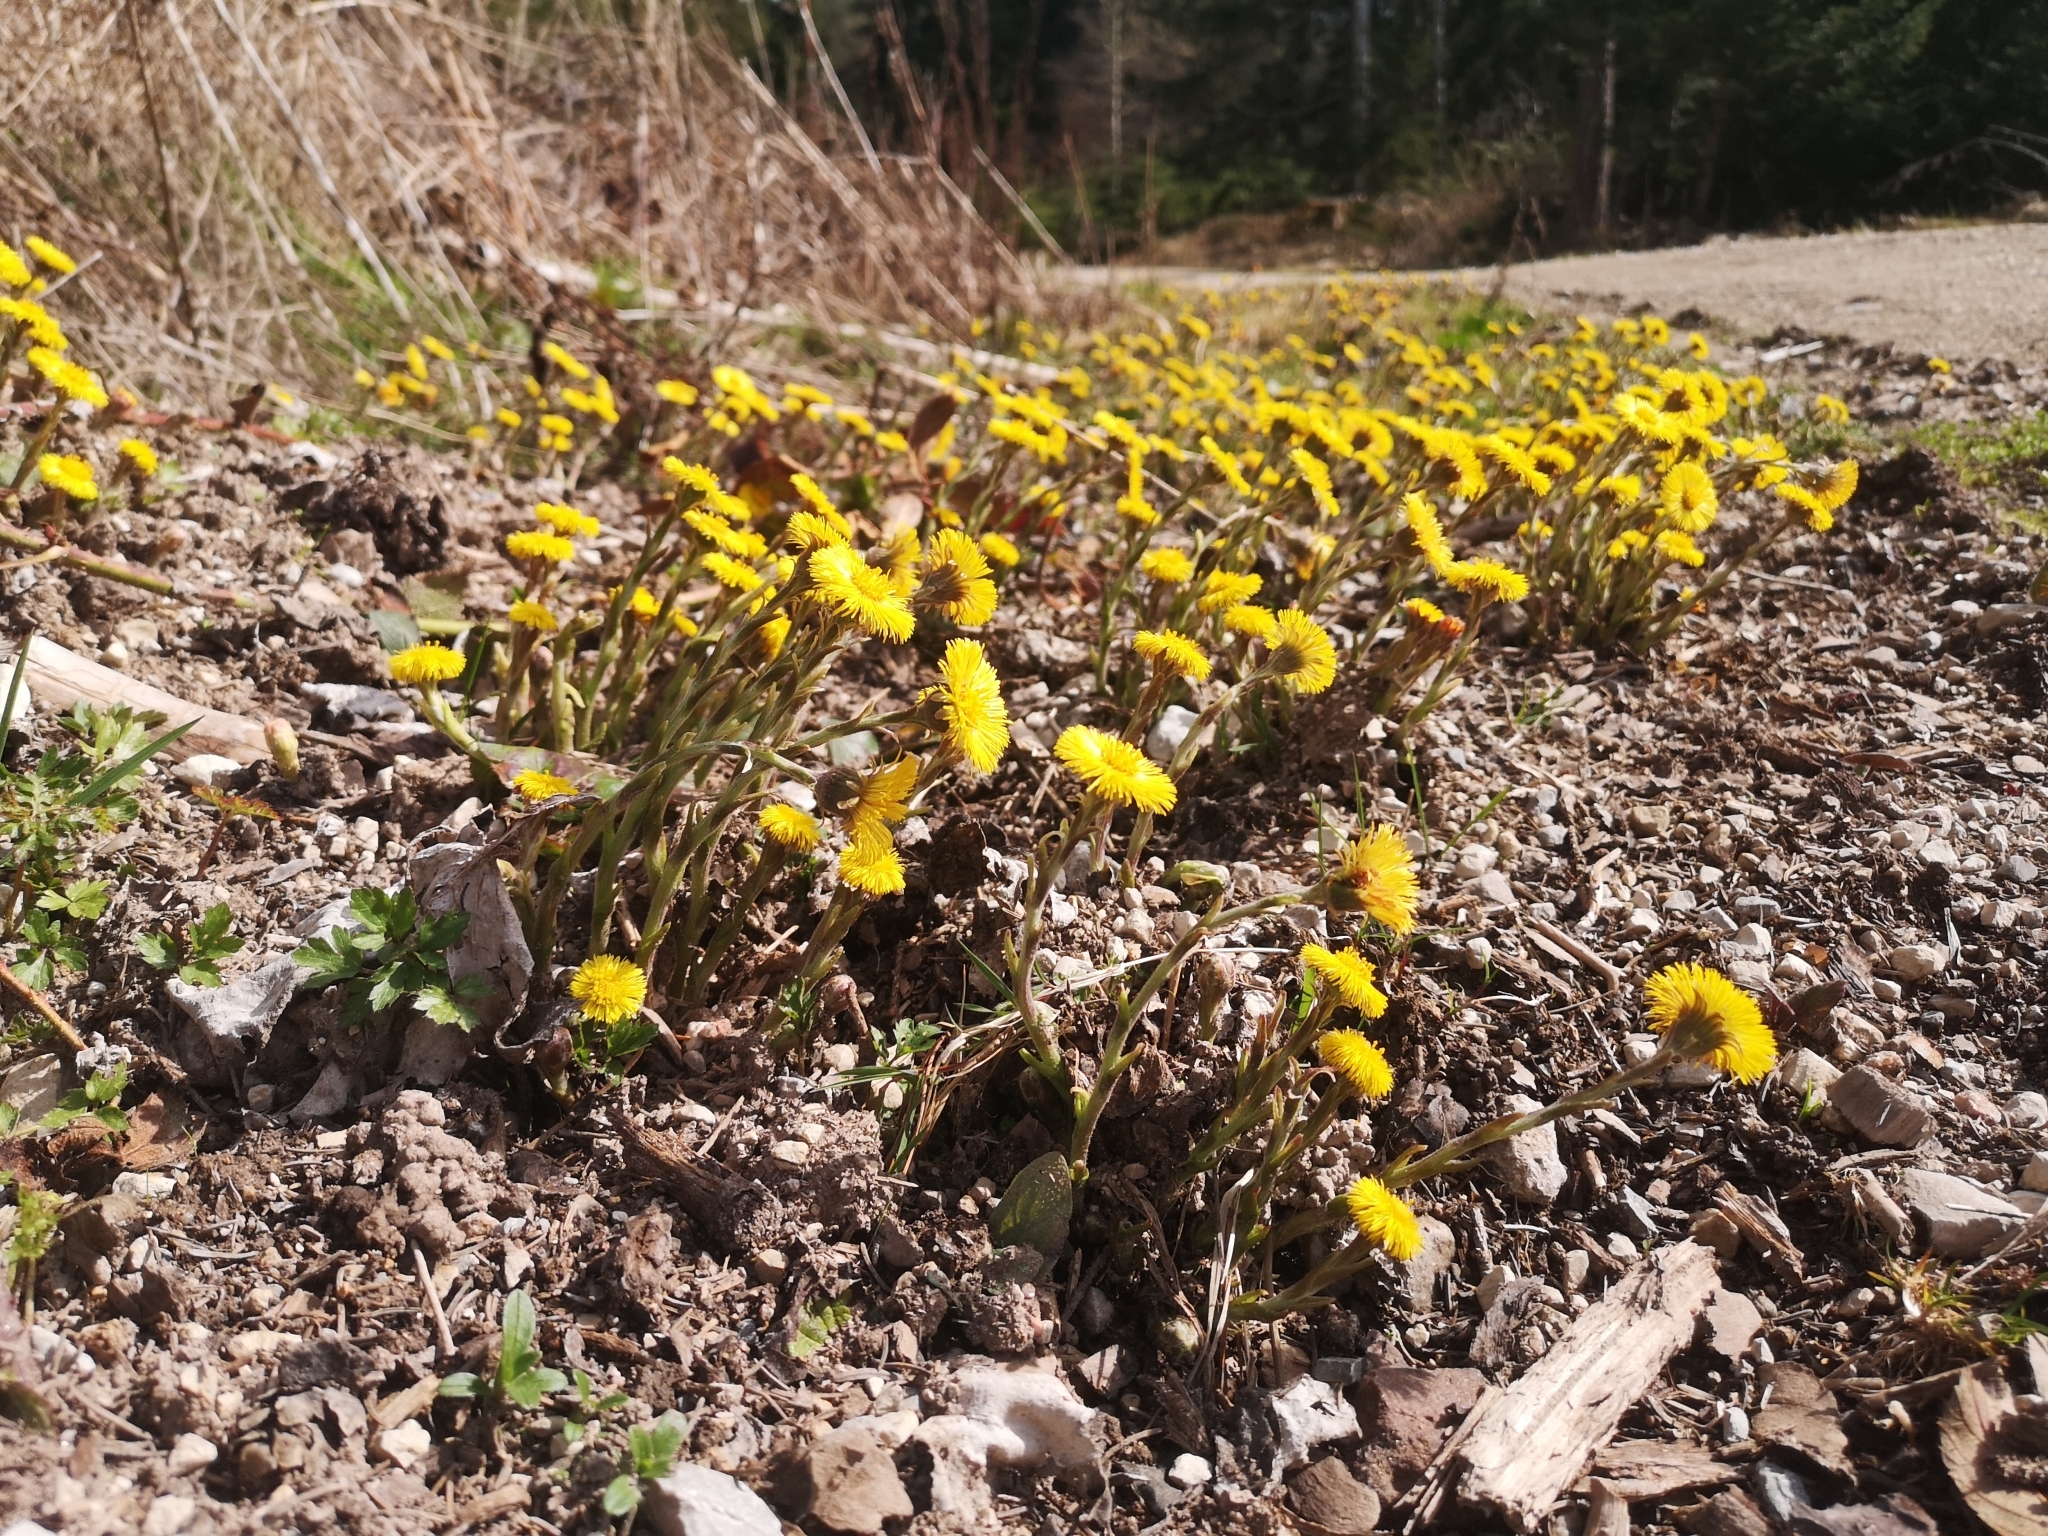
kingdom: Plantae
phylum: Tracheophyta
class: Magnoliopsida
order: Asterales
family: Asteraceae
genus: Tussilago
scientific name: Tussilago farfara
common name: Coltsfoot
